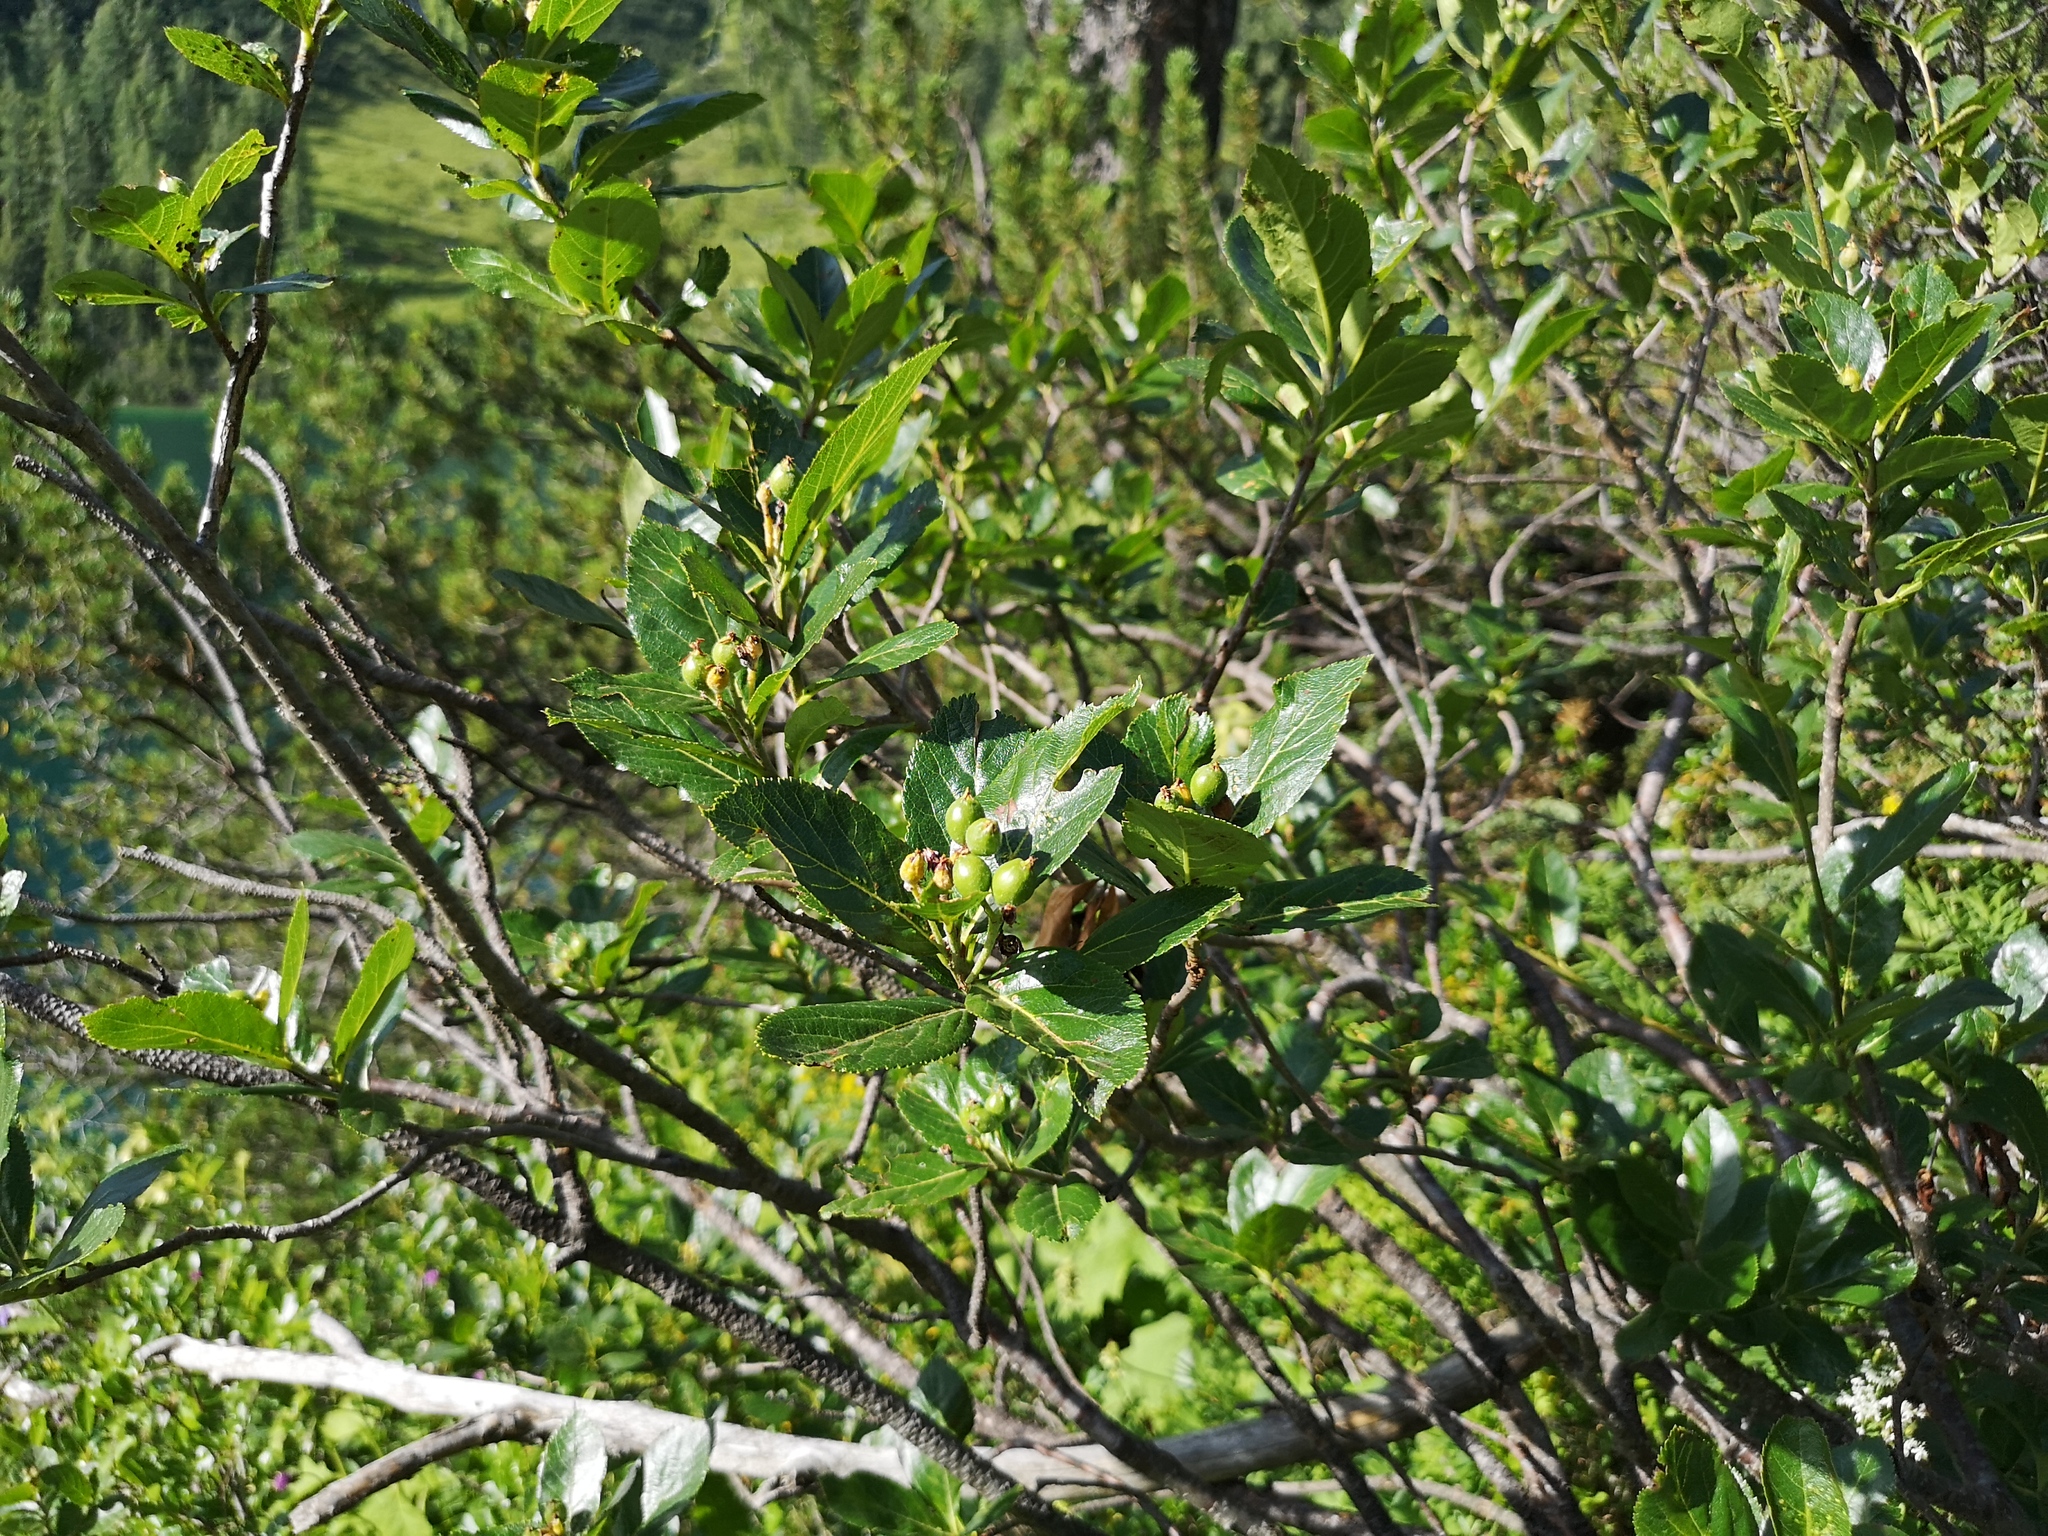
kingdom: Plantae
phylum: Tracheophyta
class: Magnoliopsida
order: Rosales
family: Rosaceae
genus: Chamaemespilus
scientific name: Chamaemespilus alpina
